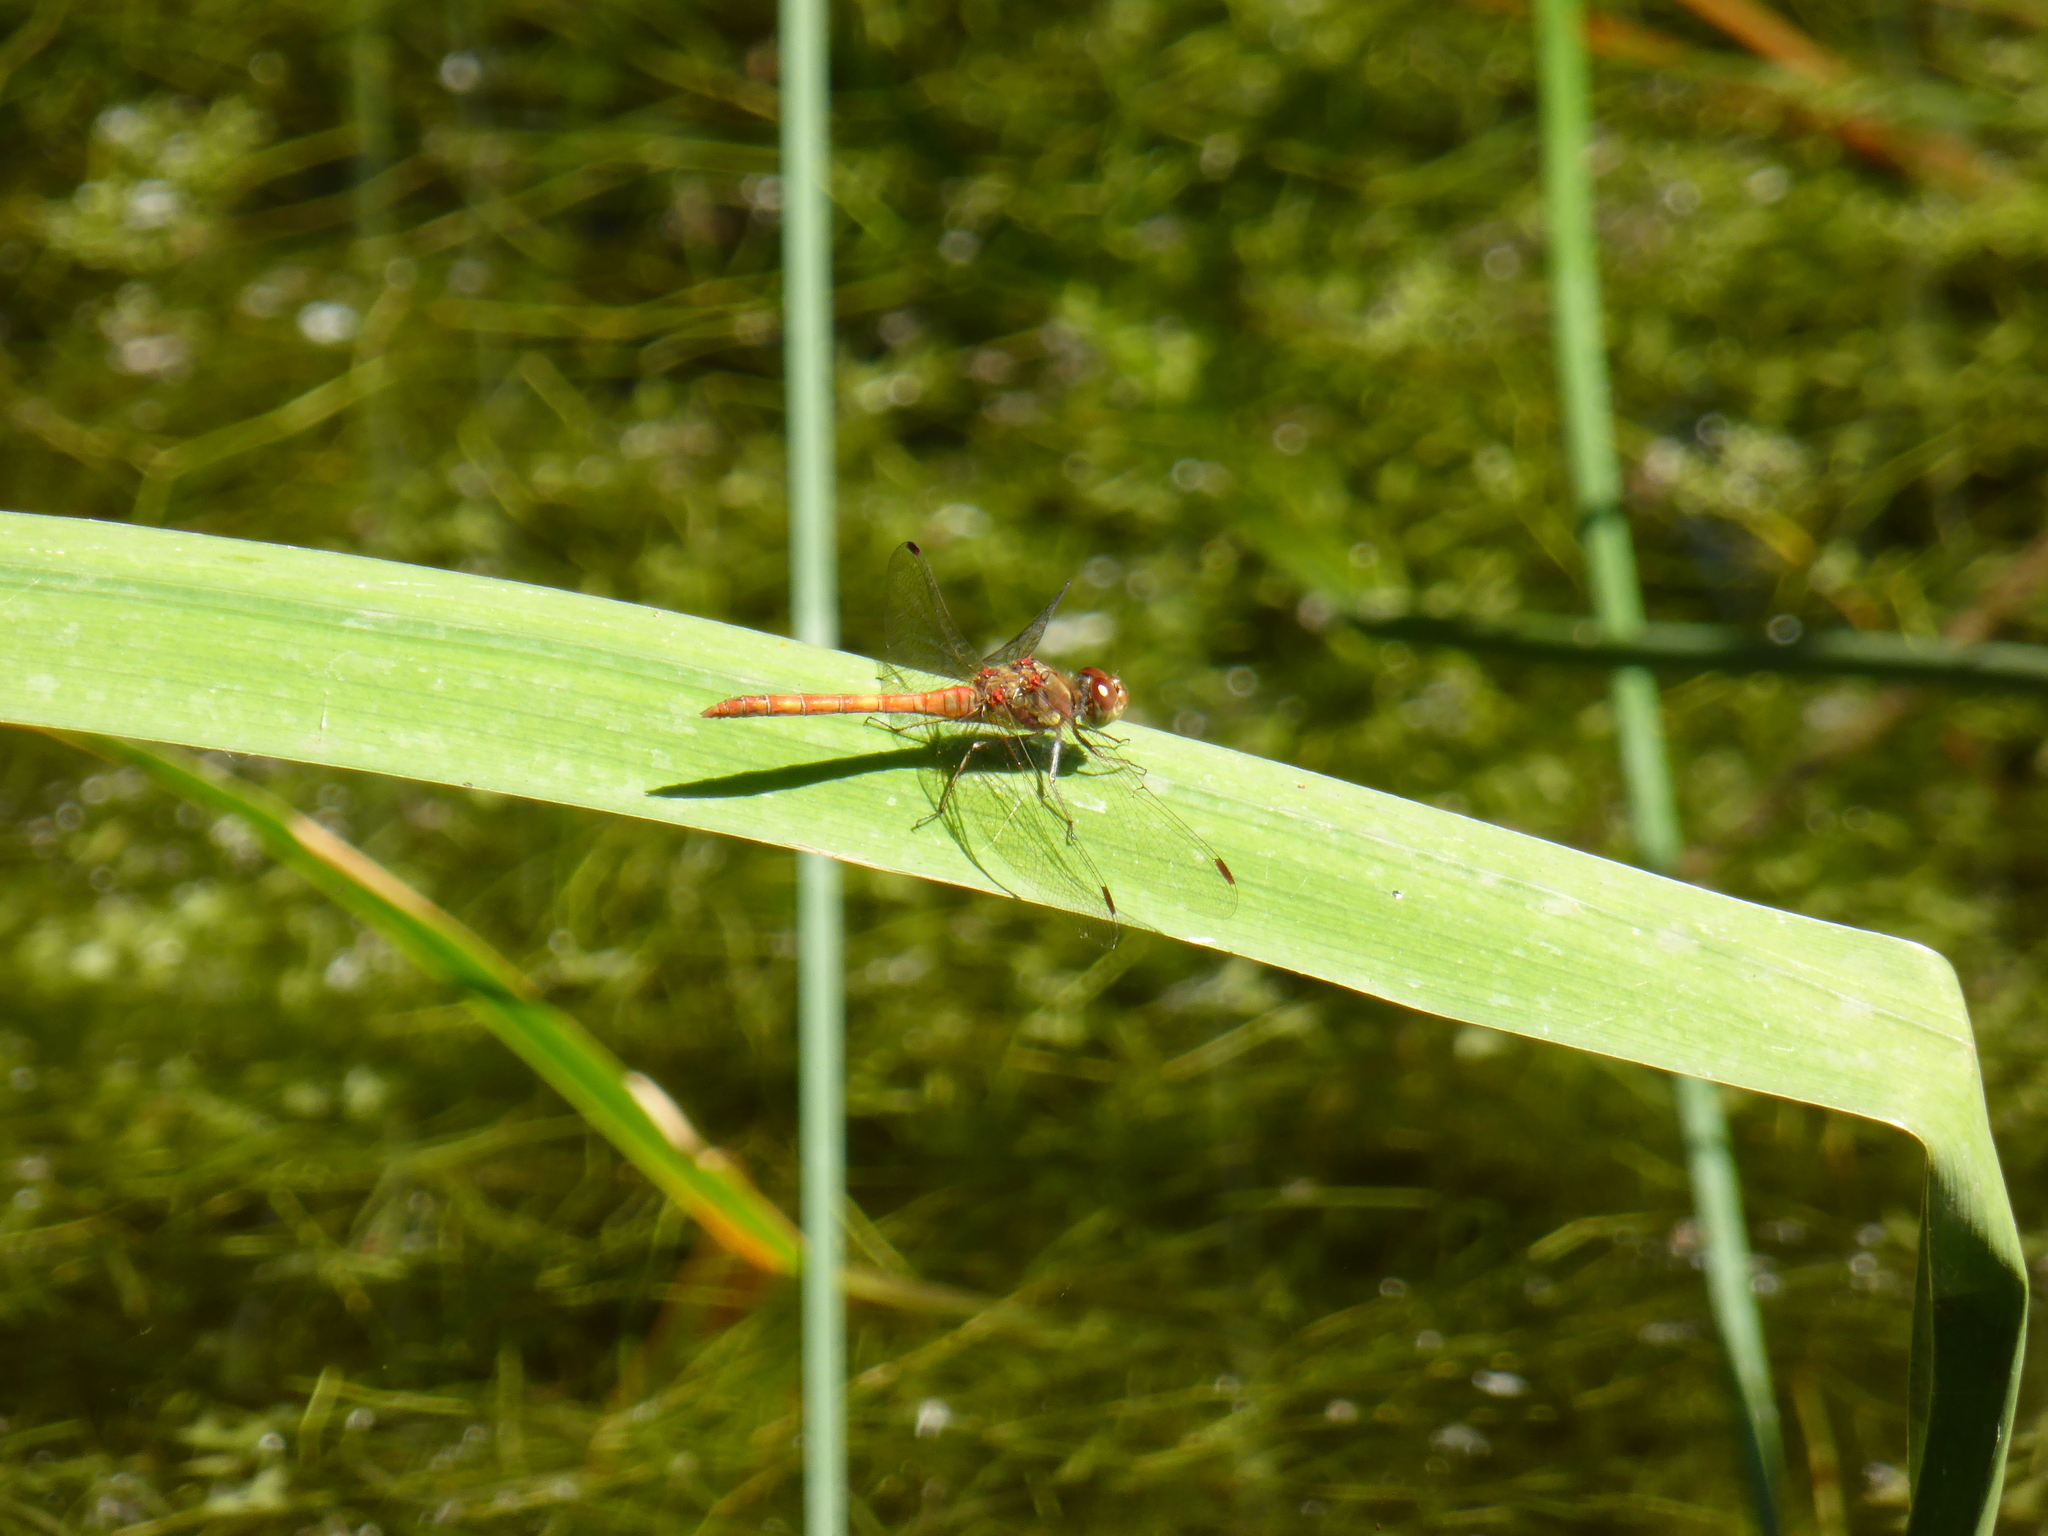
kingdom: Animalia
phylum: Arthropoda
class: Insecta
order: Odonata
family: Libellulidae
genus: Sympetrum
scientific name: Sympetrum striolatum
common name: Common darter
